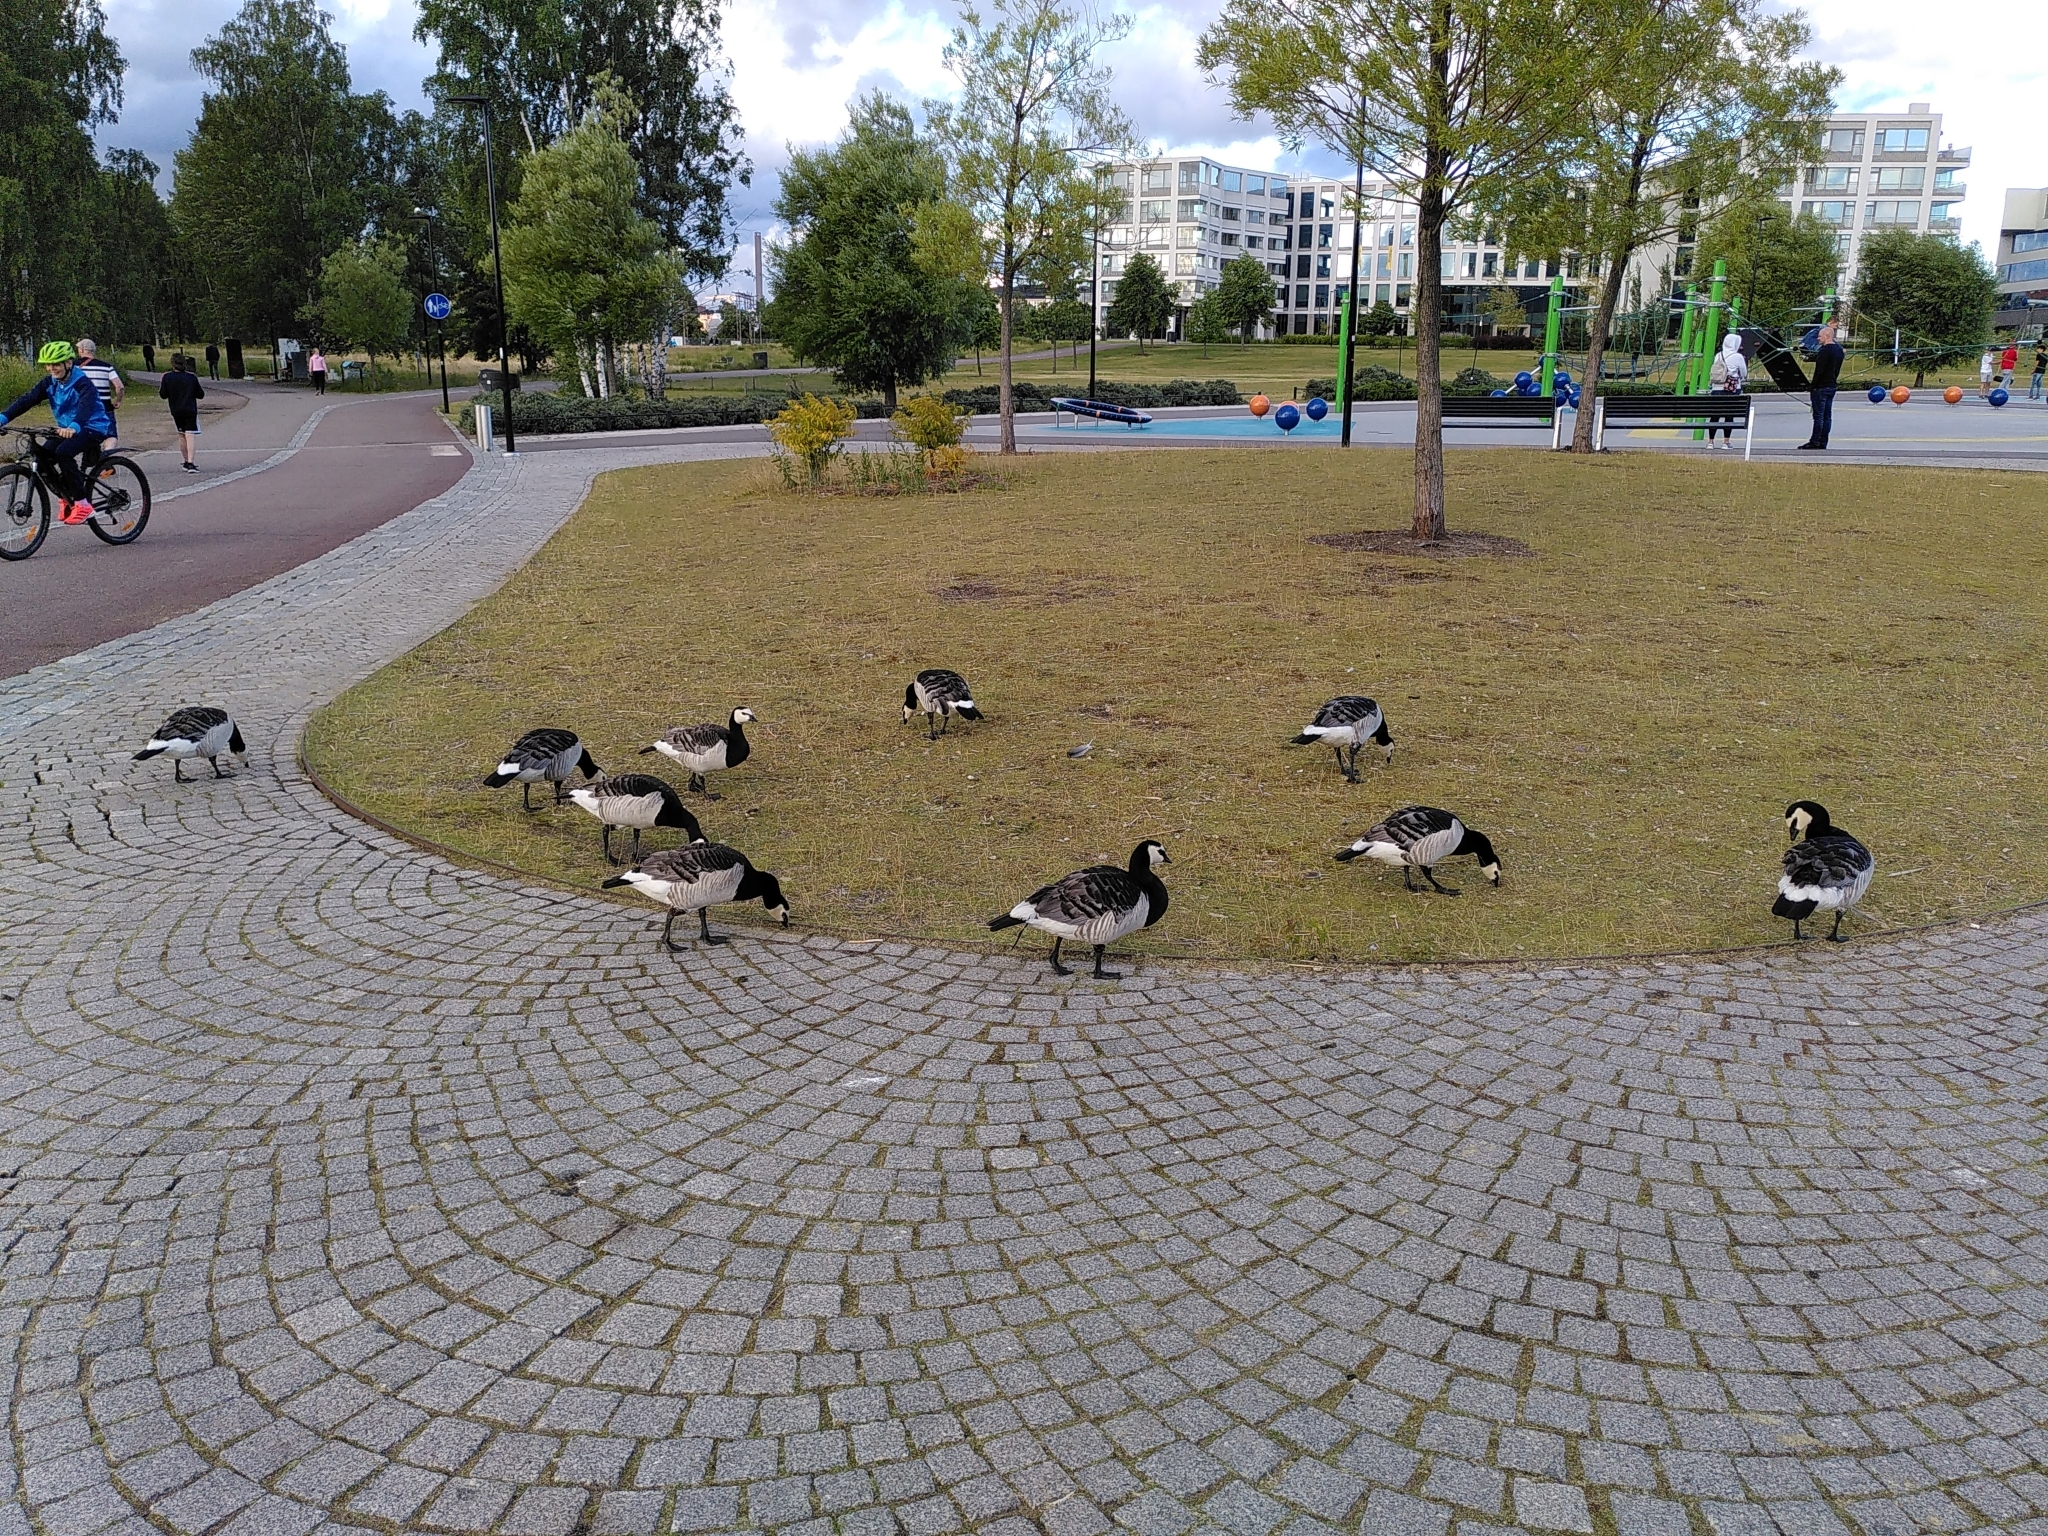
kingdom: Animalia
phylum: Chordata
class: Aves
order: Anseriformes
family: Anatidae
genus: Branta
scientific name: Branta leucopsis
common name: Barnacle goose
